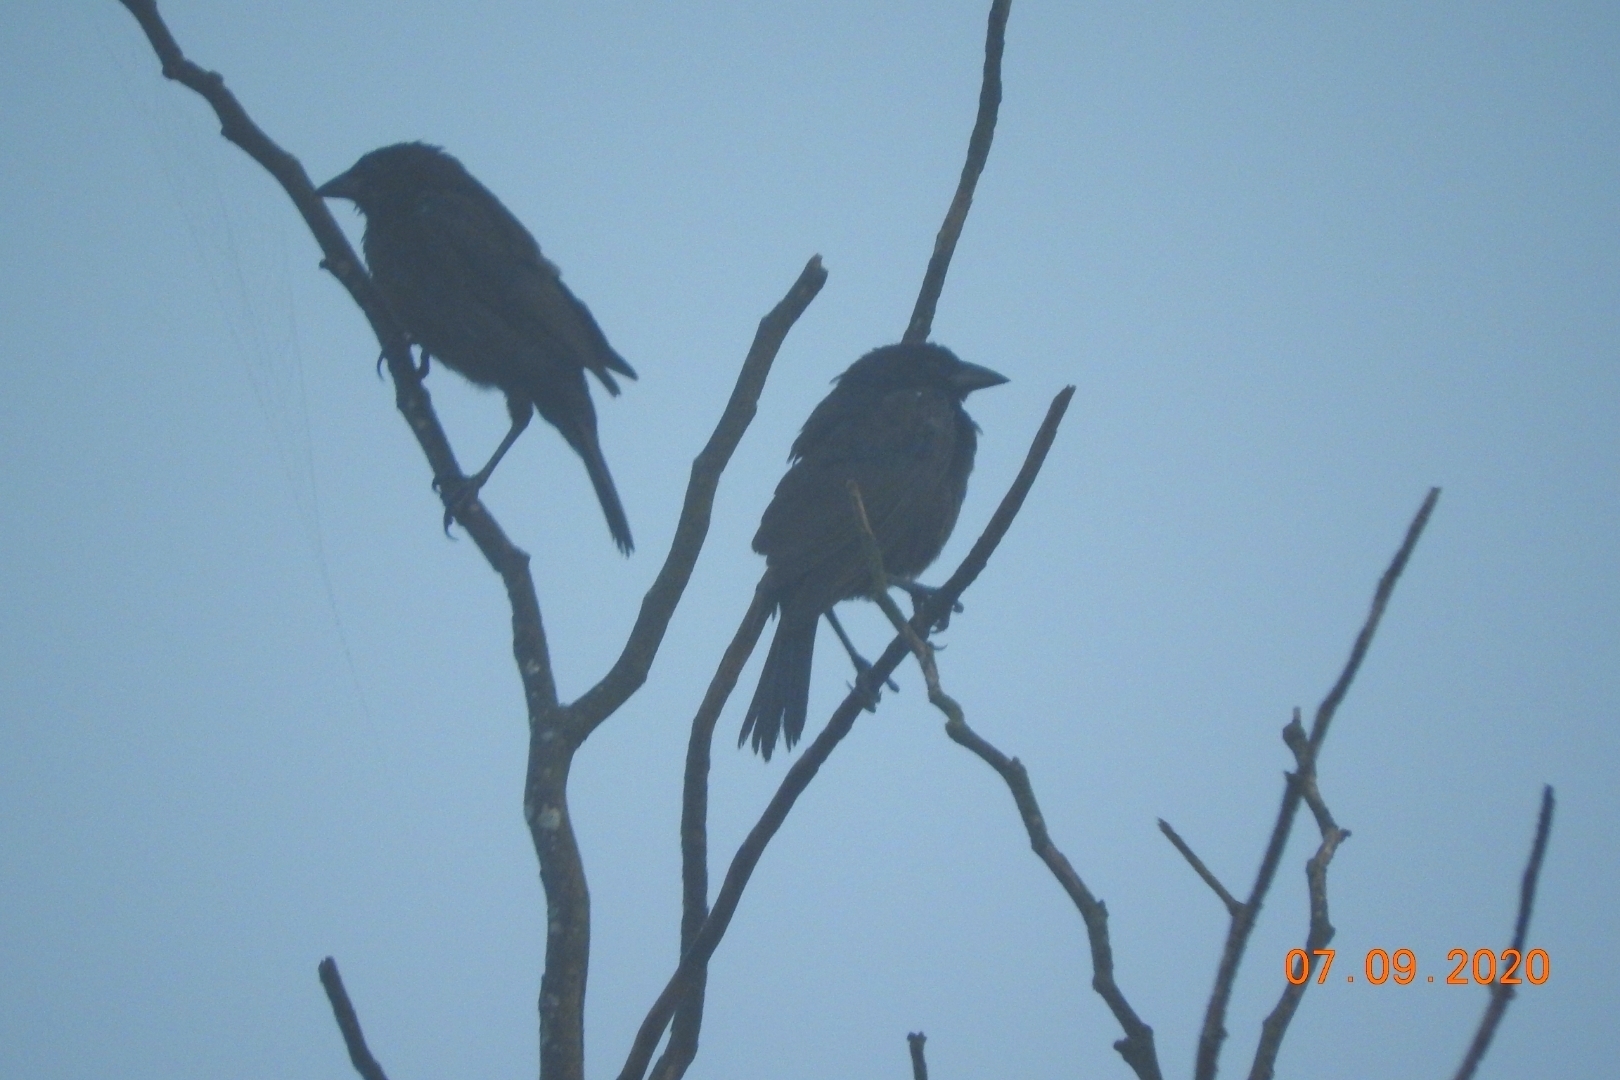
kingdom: Animalia
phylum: Chordata
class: Aves
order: Passeriformes
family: Icteridae
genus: Dives
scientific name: Dives dives
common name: Melodious blackbird
